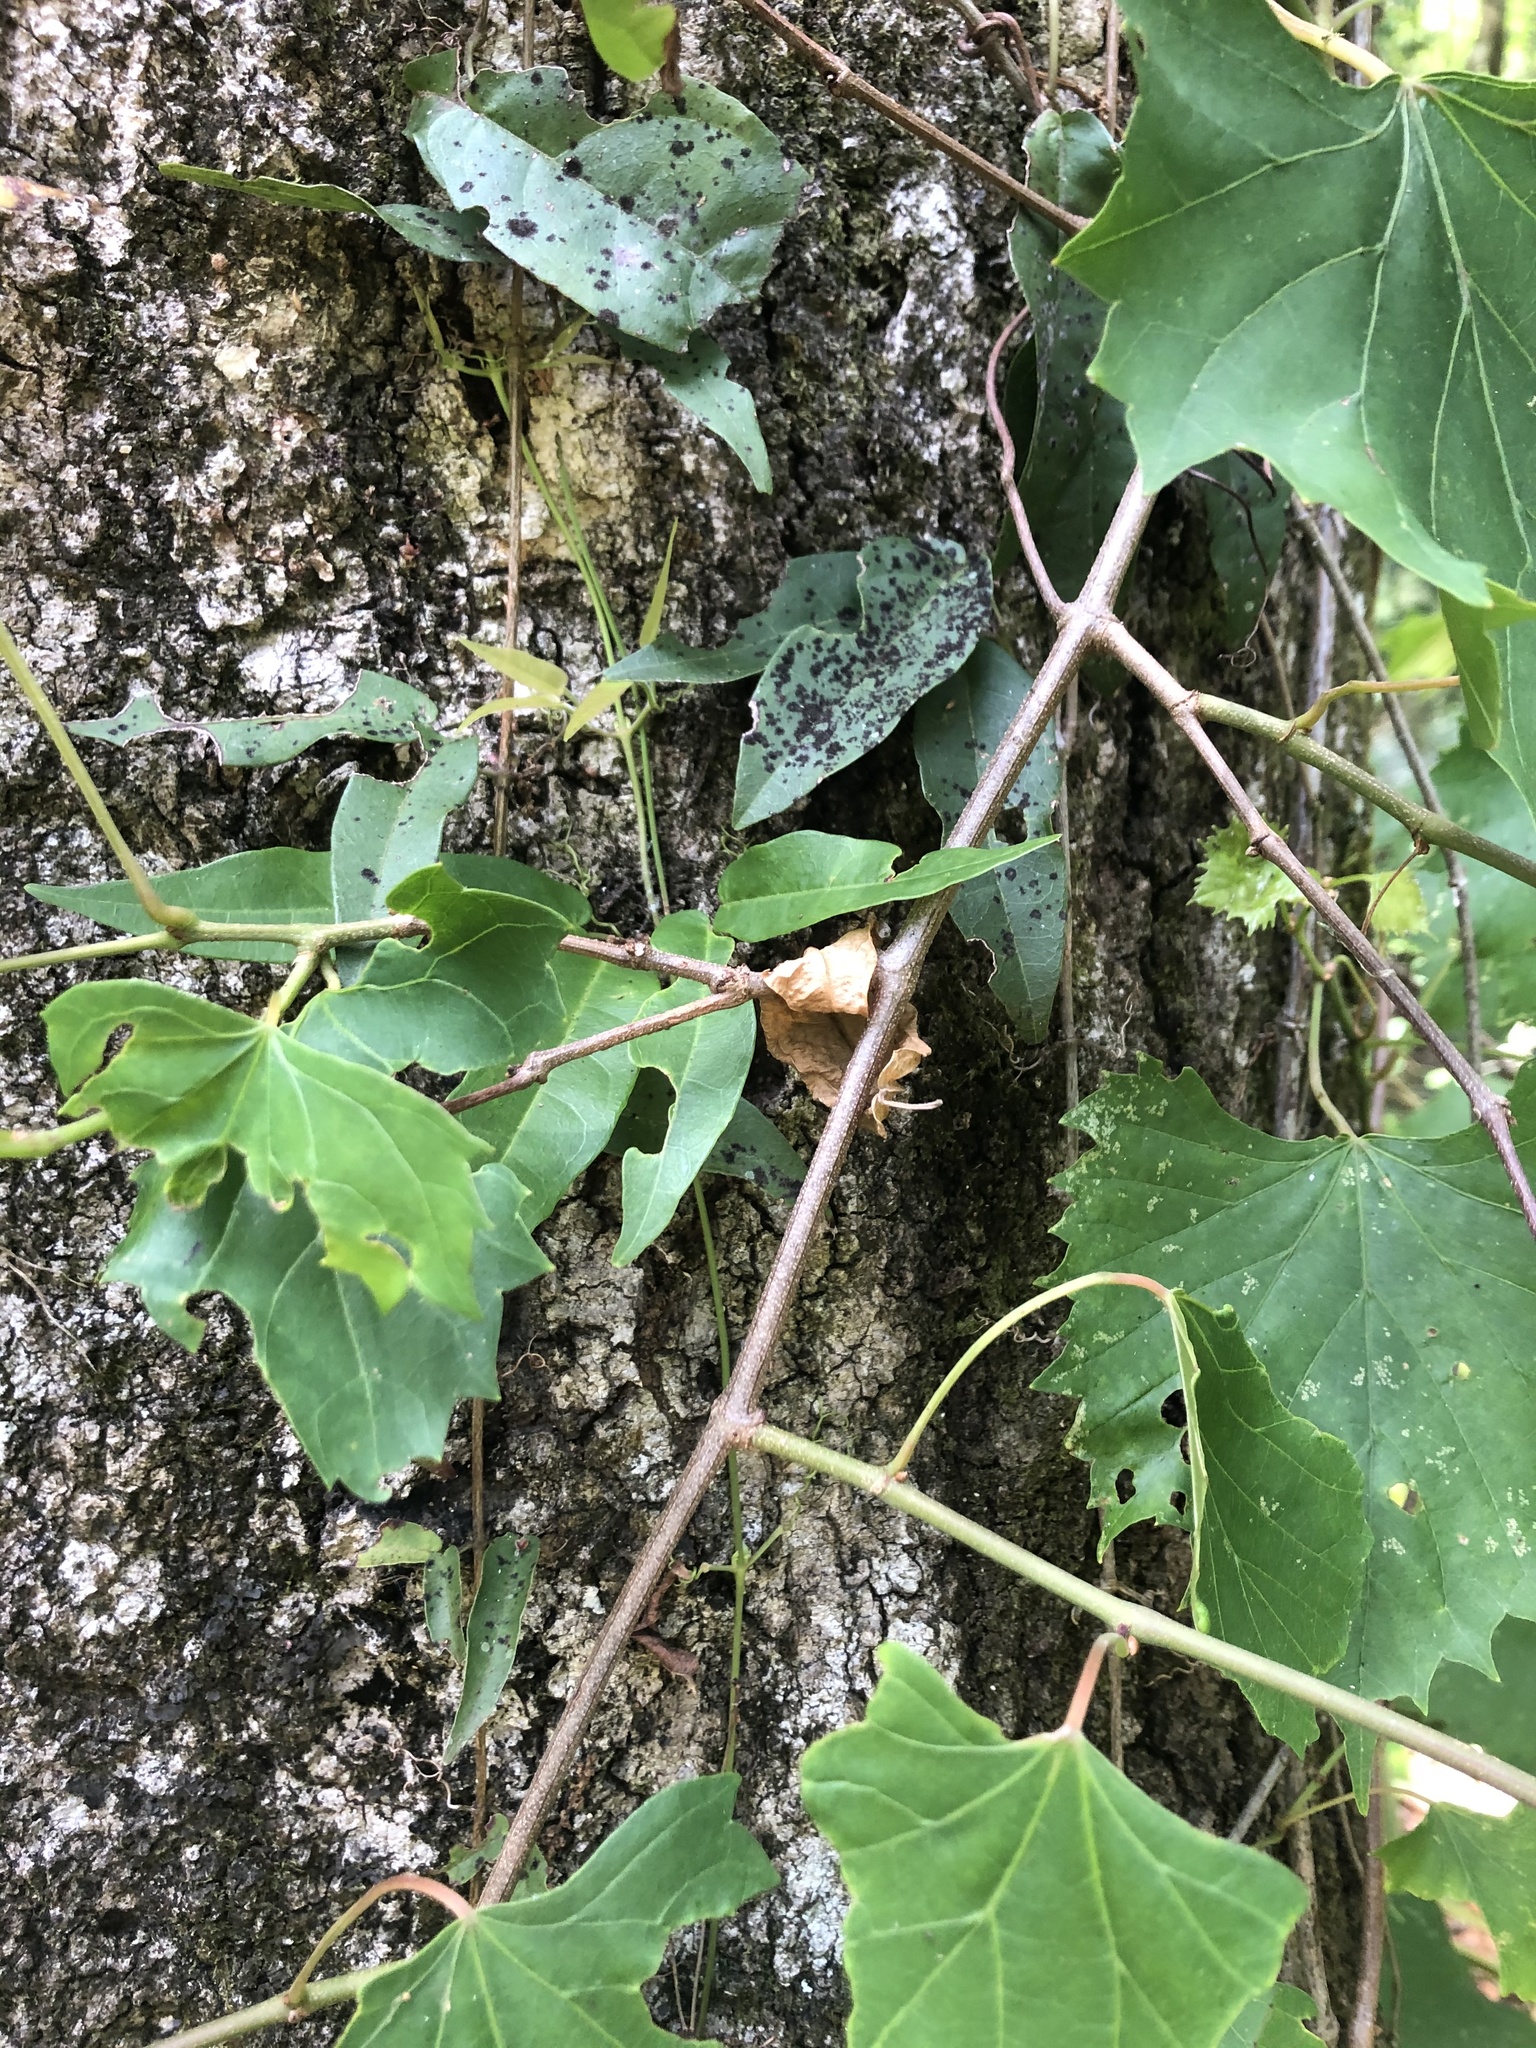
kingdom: Plantae
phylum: Tracheophyta
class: Magnoliopsida
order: Vitales
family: Vitaceae
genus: Vitis
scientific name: Vitis rotundifolia
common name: Muscadine grape
